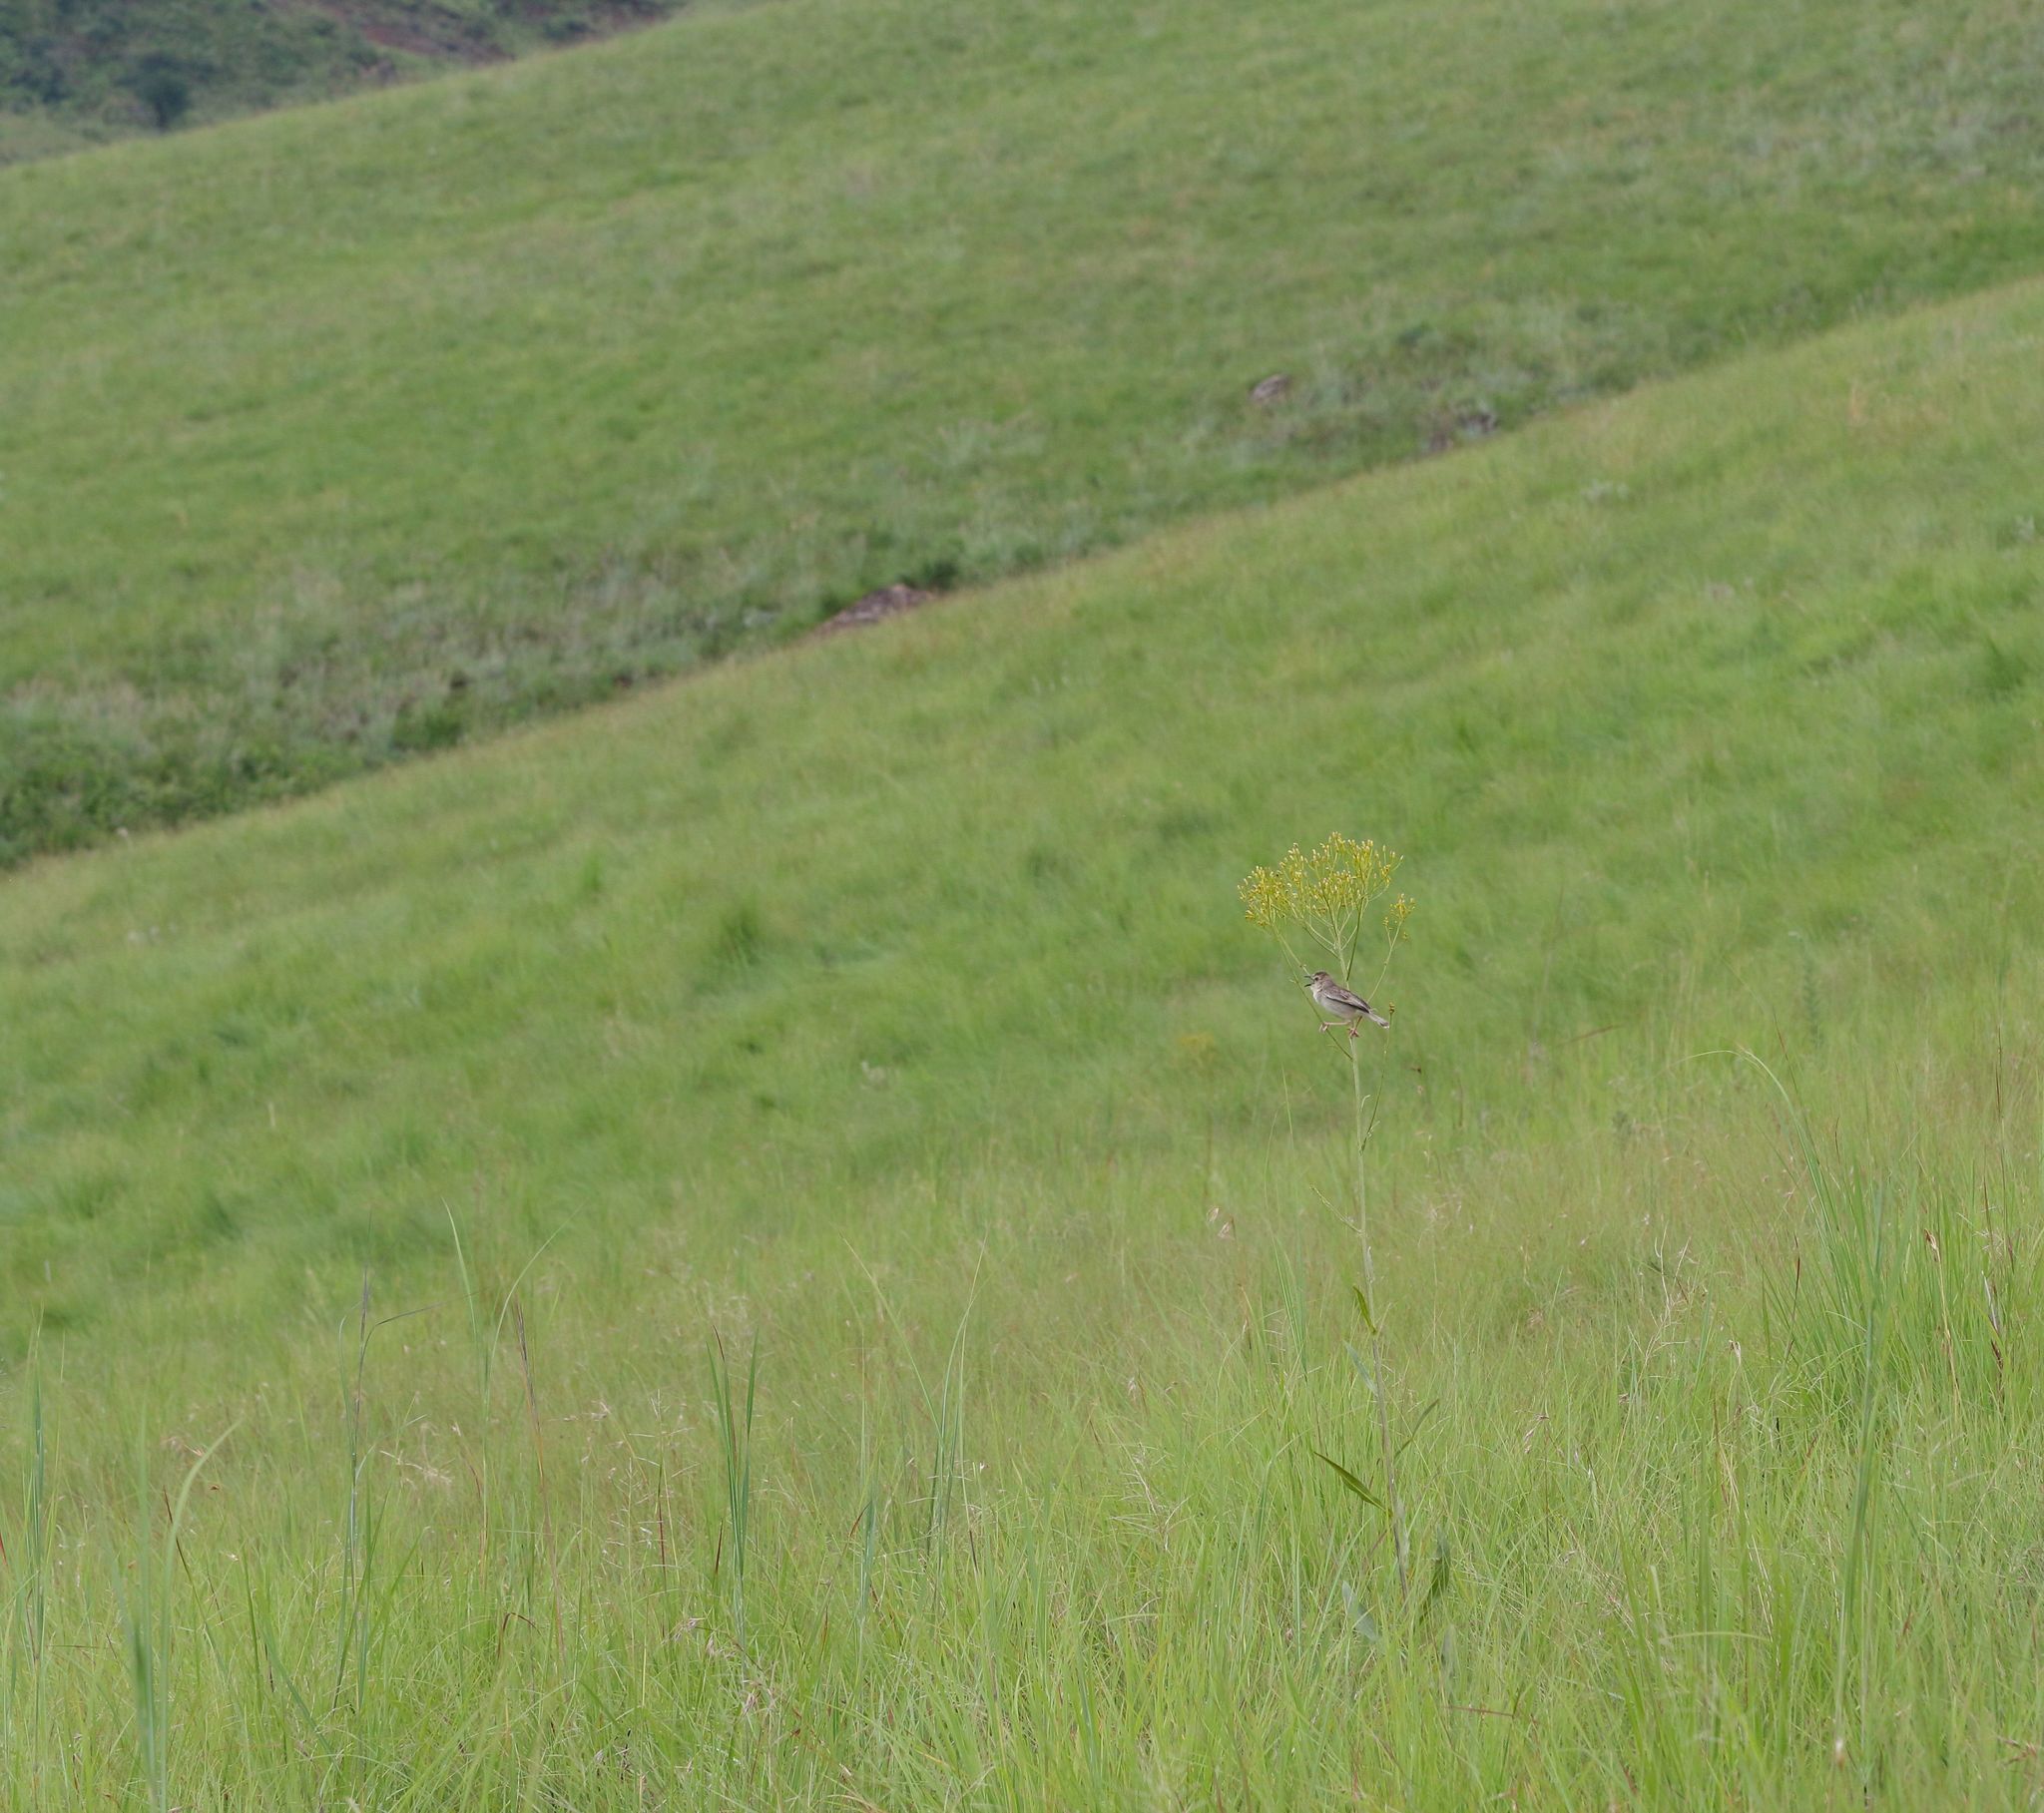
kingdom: Animalia
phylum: Chordata
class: Aves
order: Passeriformes
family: Cisticolidae
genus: Cisticola
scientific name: Cisticola natalensis
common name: Croaking cisticola
